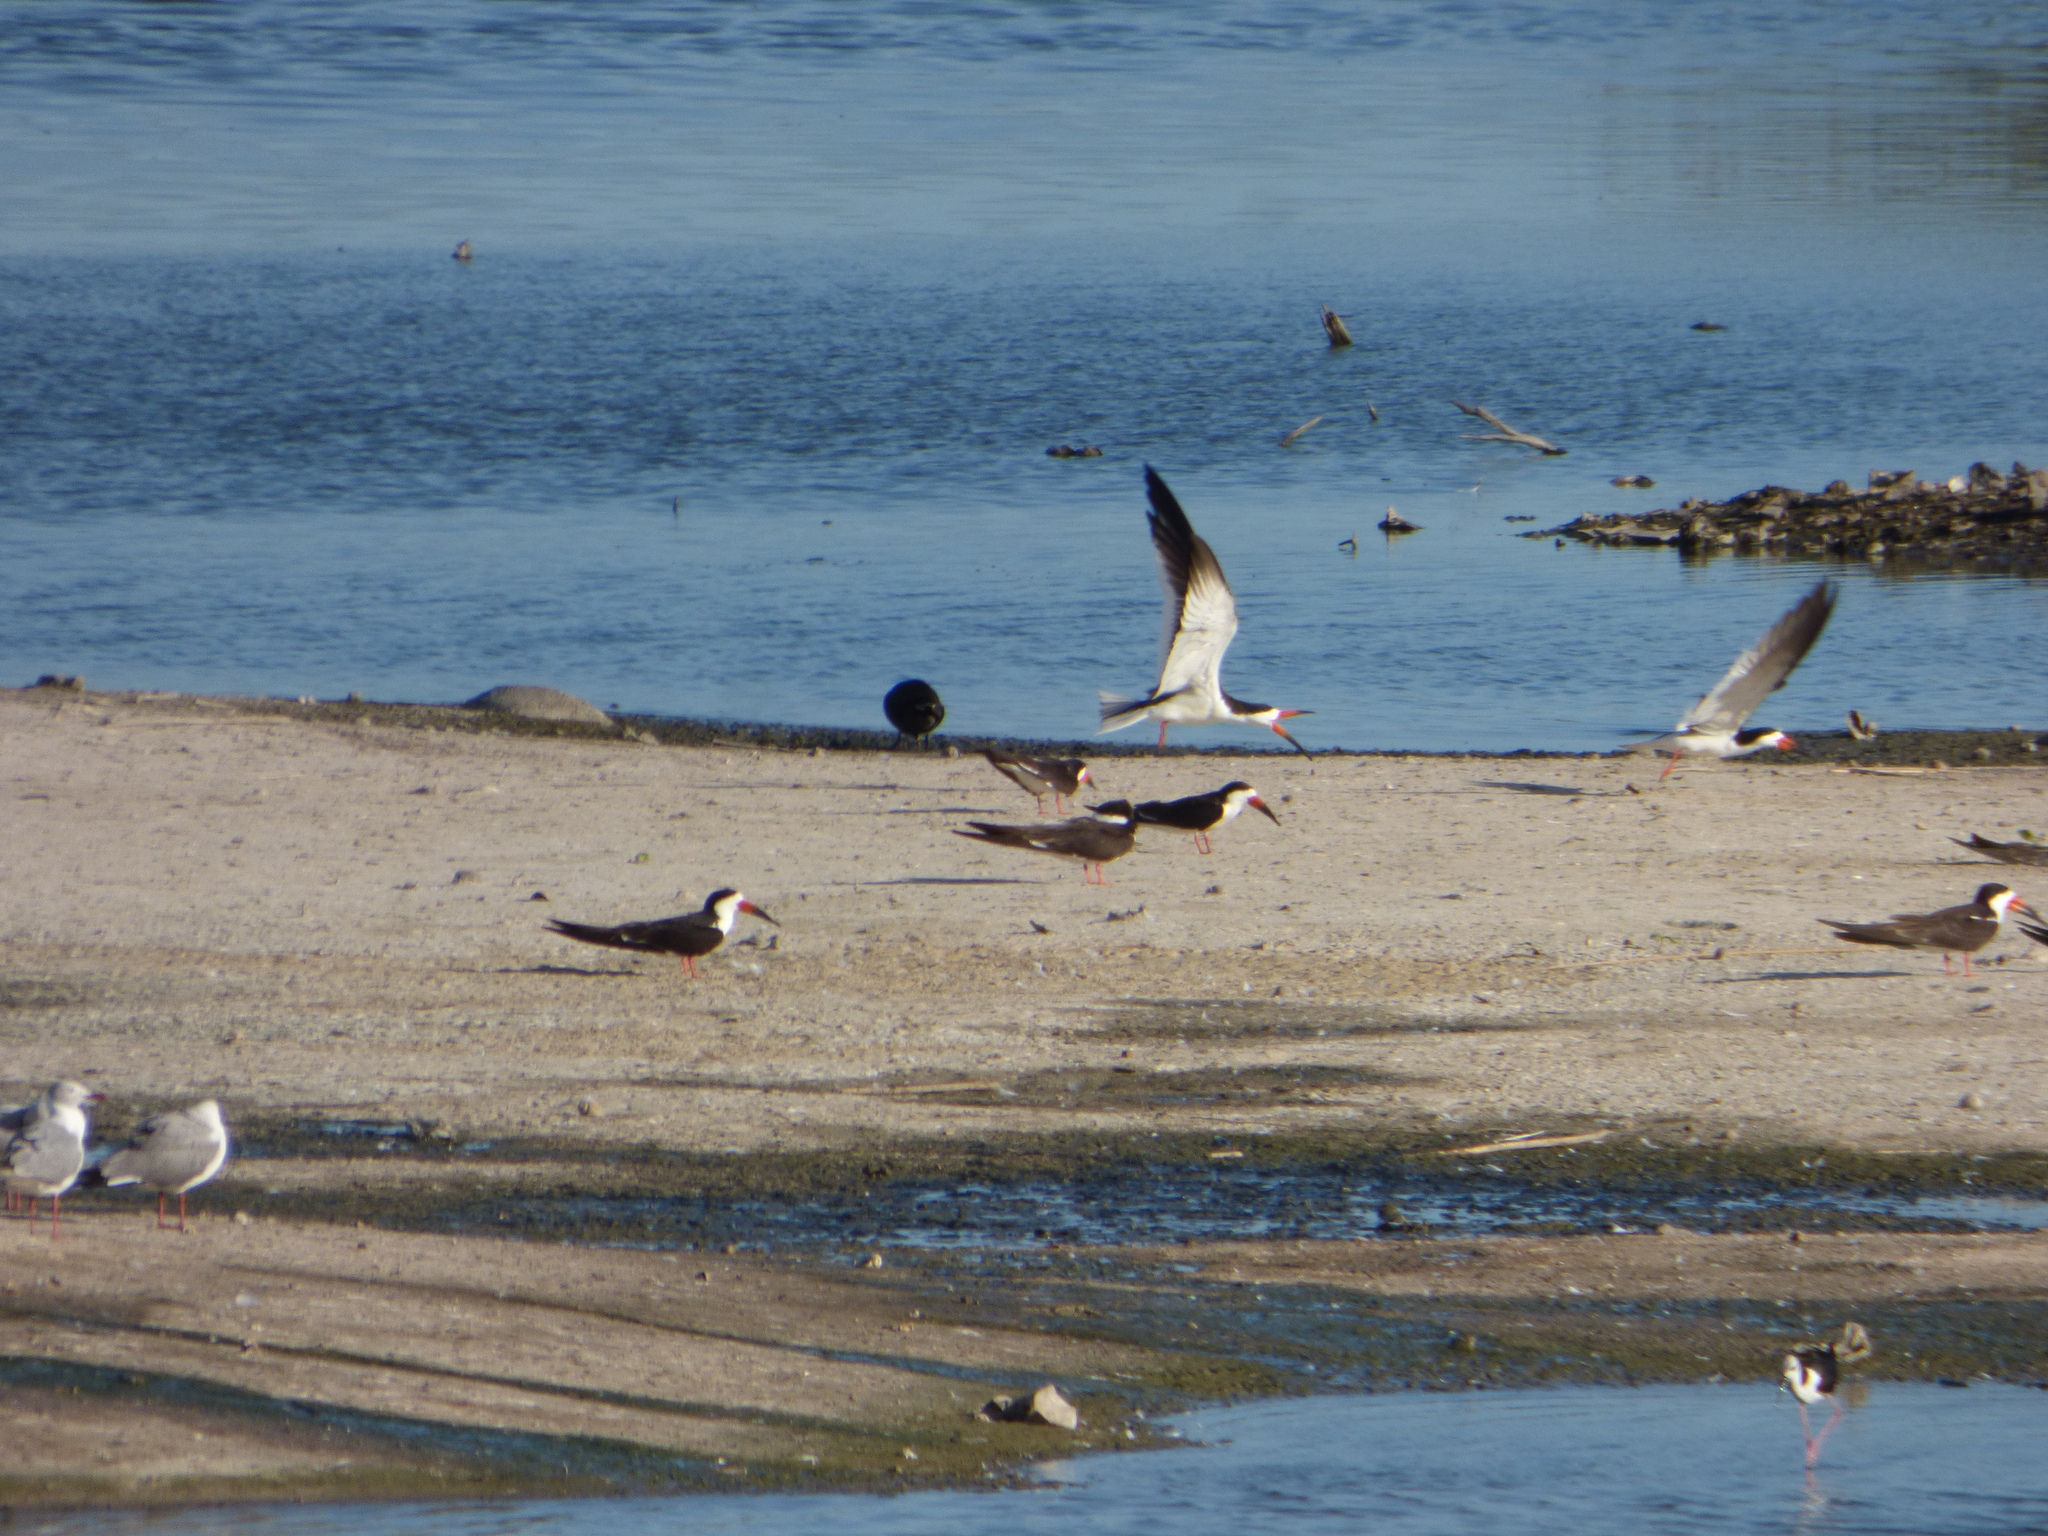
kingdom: Animalia
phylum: Chordata
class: Aves
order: Charadriiformes
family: Laridae
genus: Rynchops
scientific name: Rynchops niger
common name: Black skimmer
